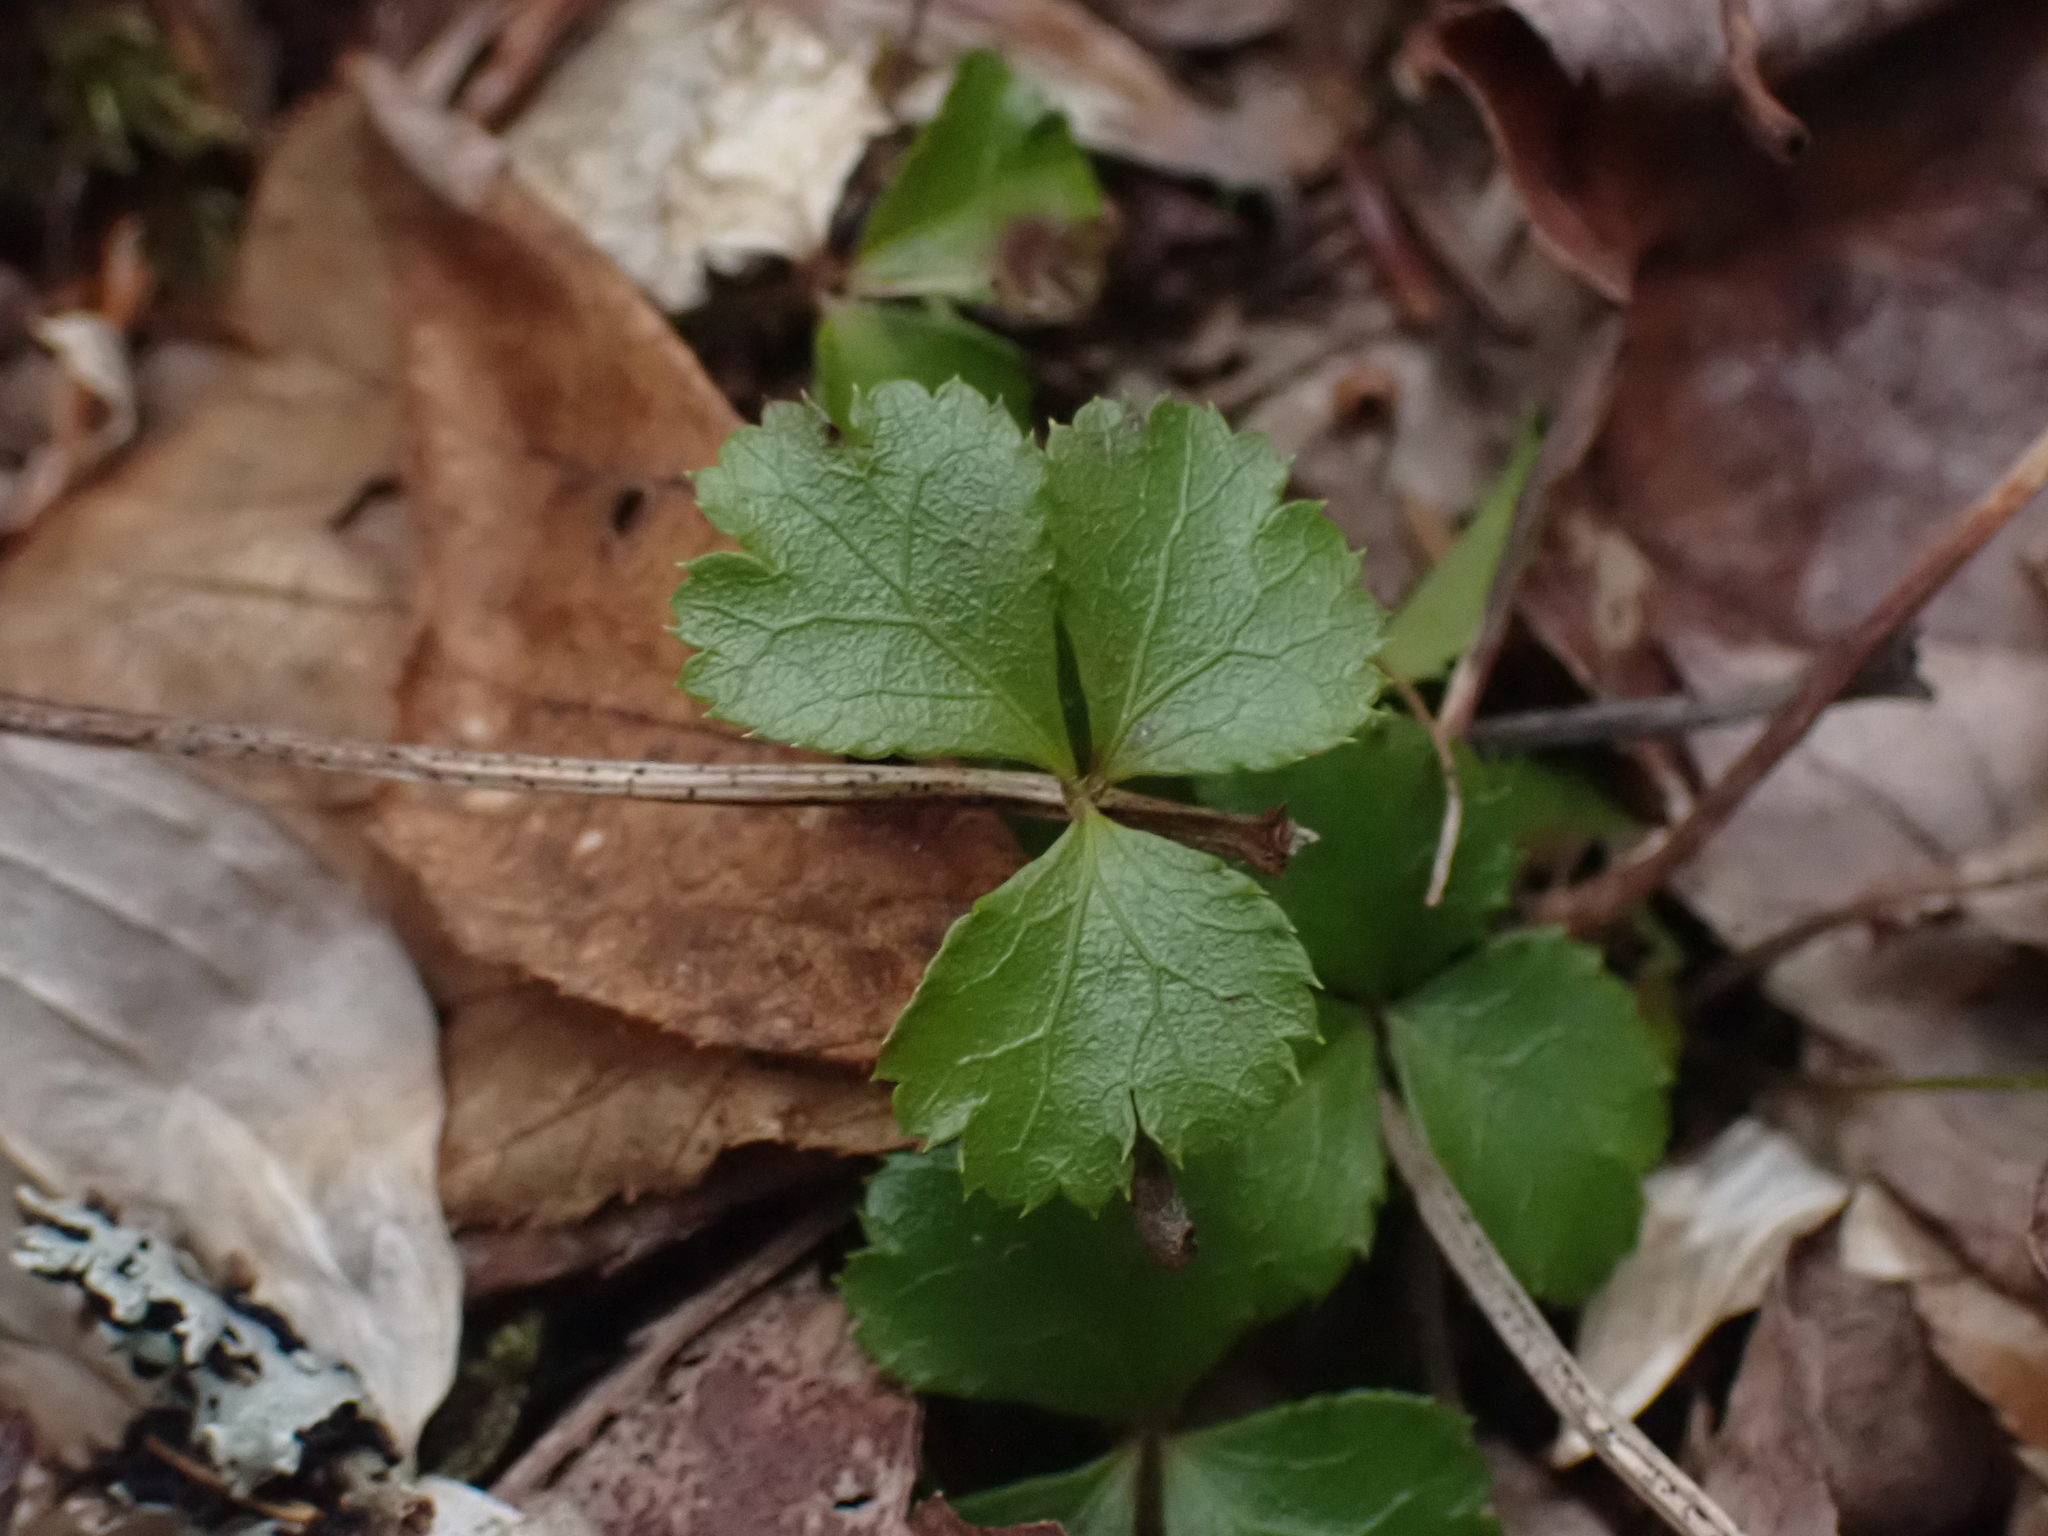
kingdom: Plantae
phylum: Tracheophyta
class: Magnoliopsida
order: Ranunculales
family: Ranunculaceae
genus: Coptis
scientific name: Coptis trifolia
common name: Canker-root
